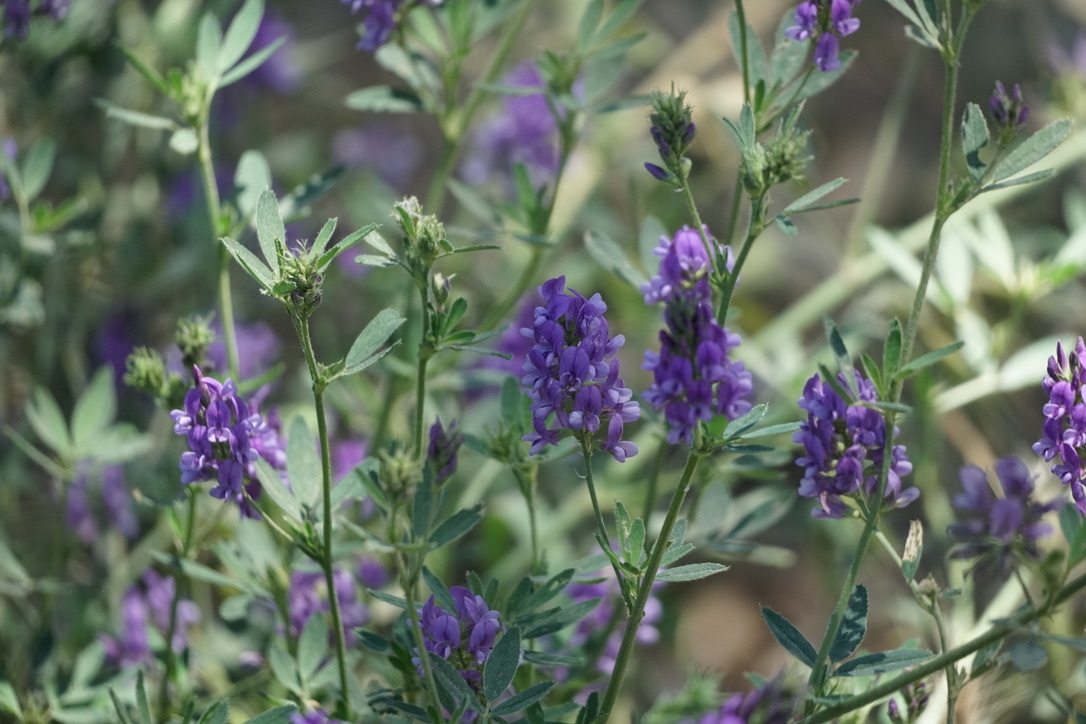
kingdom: Plantae
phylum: Tracheophyta
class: Magnoliopsida
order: Fabales
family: Fabaceae
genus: Medicago
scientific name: Medicago sativa
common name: Alfalfa
